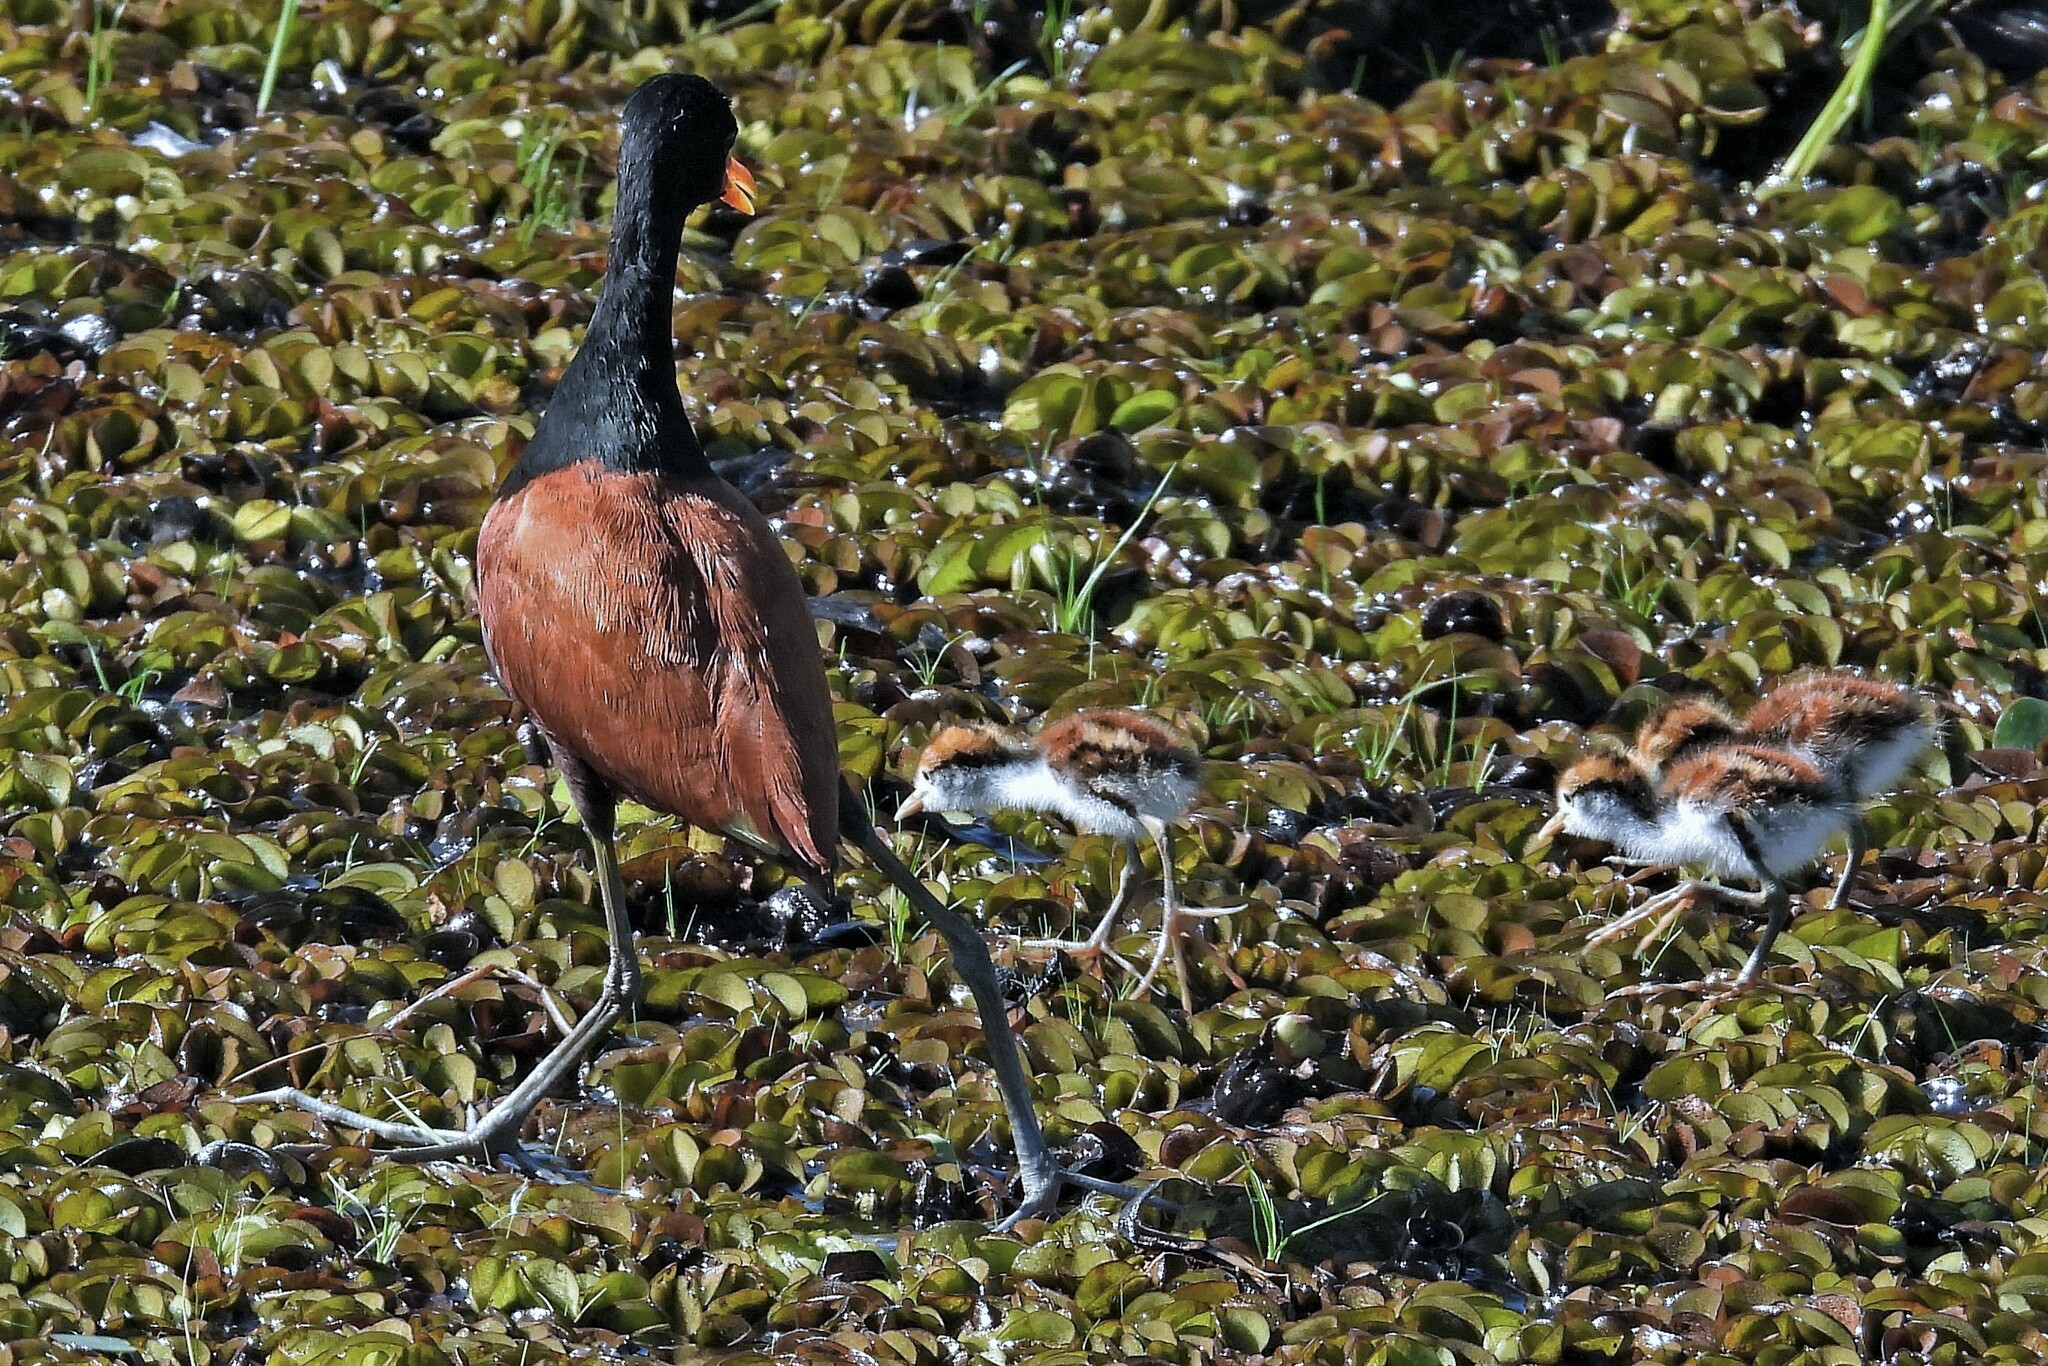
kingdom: Animalia
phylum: Chordata
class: Aves
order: Charadriiformes
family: Jacanidae
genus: Jacana
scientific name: Jacana jacana
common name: Wattled jacana
